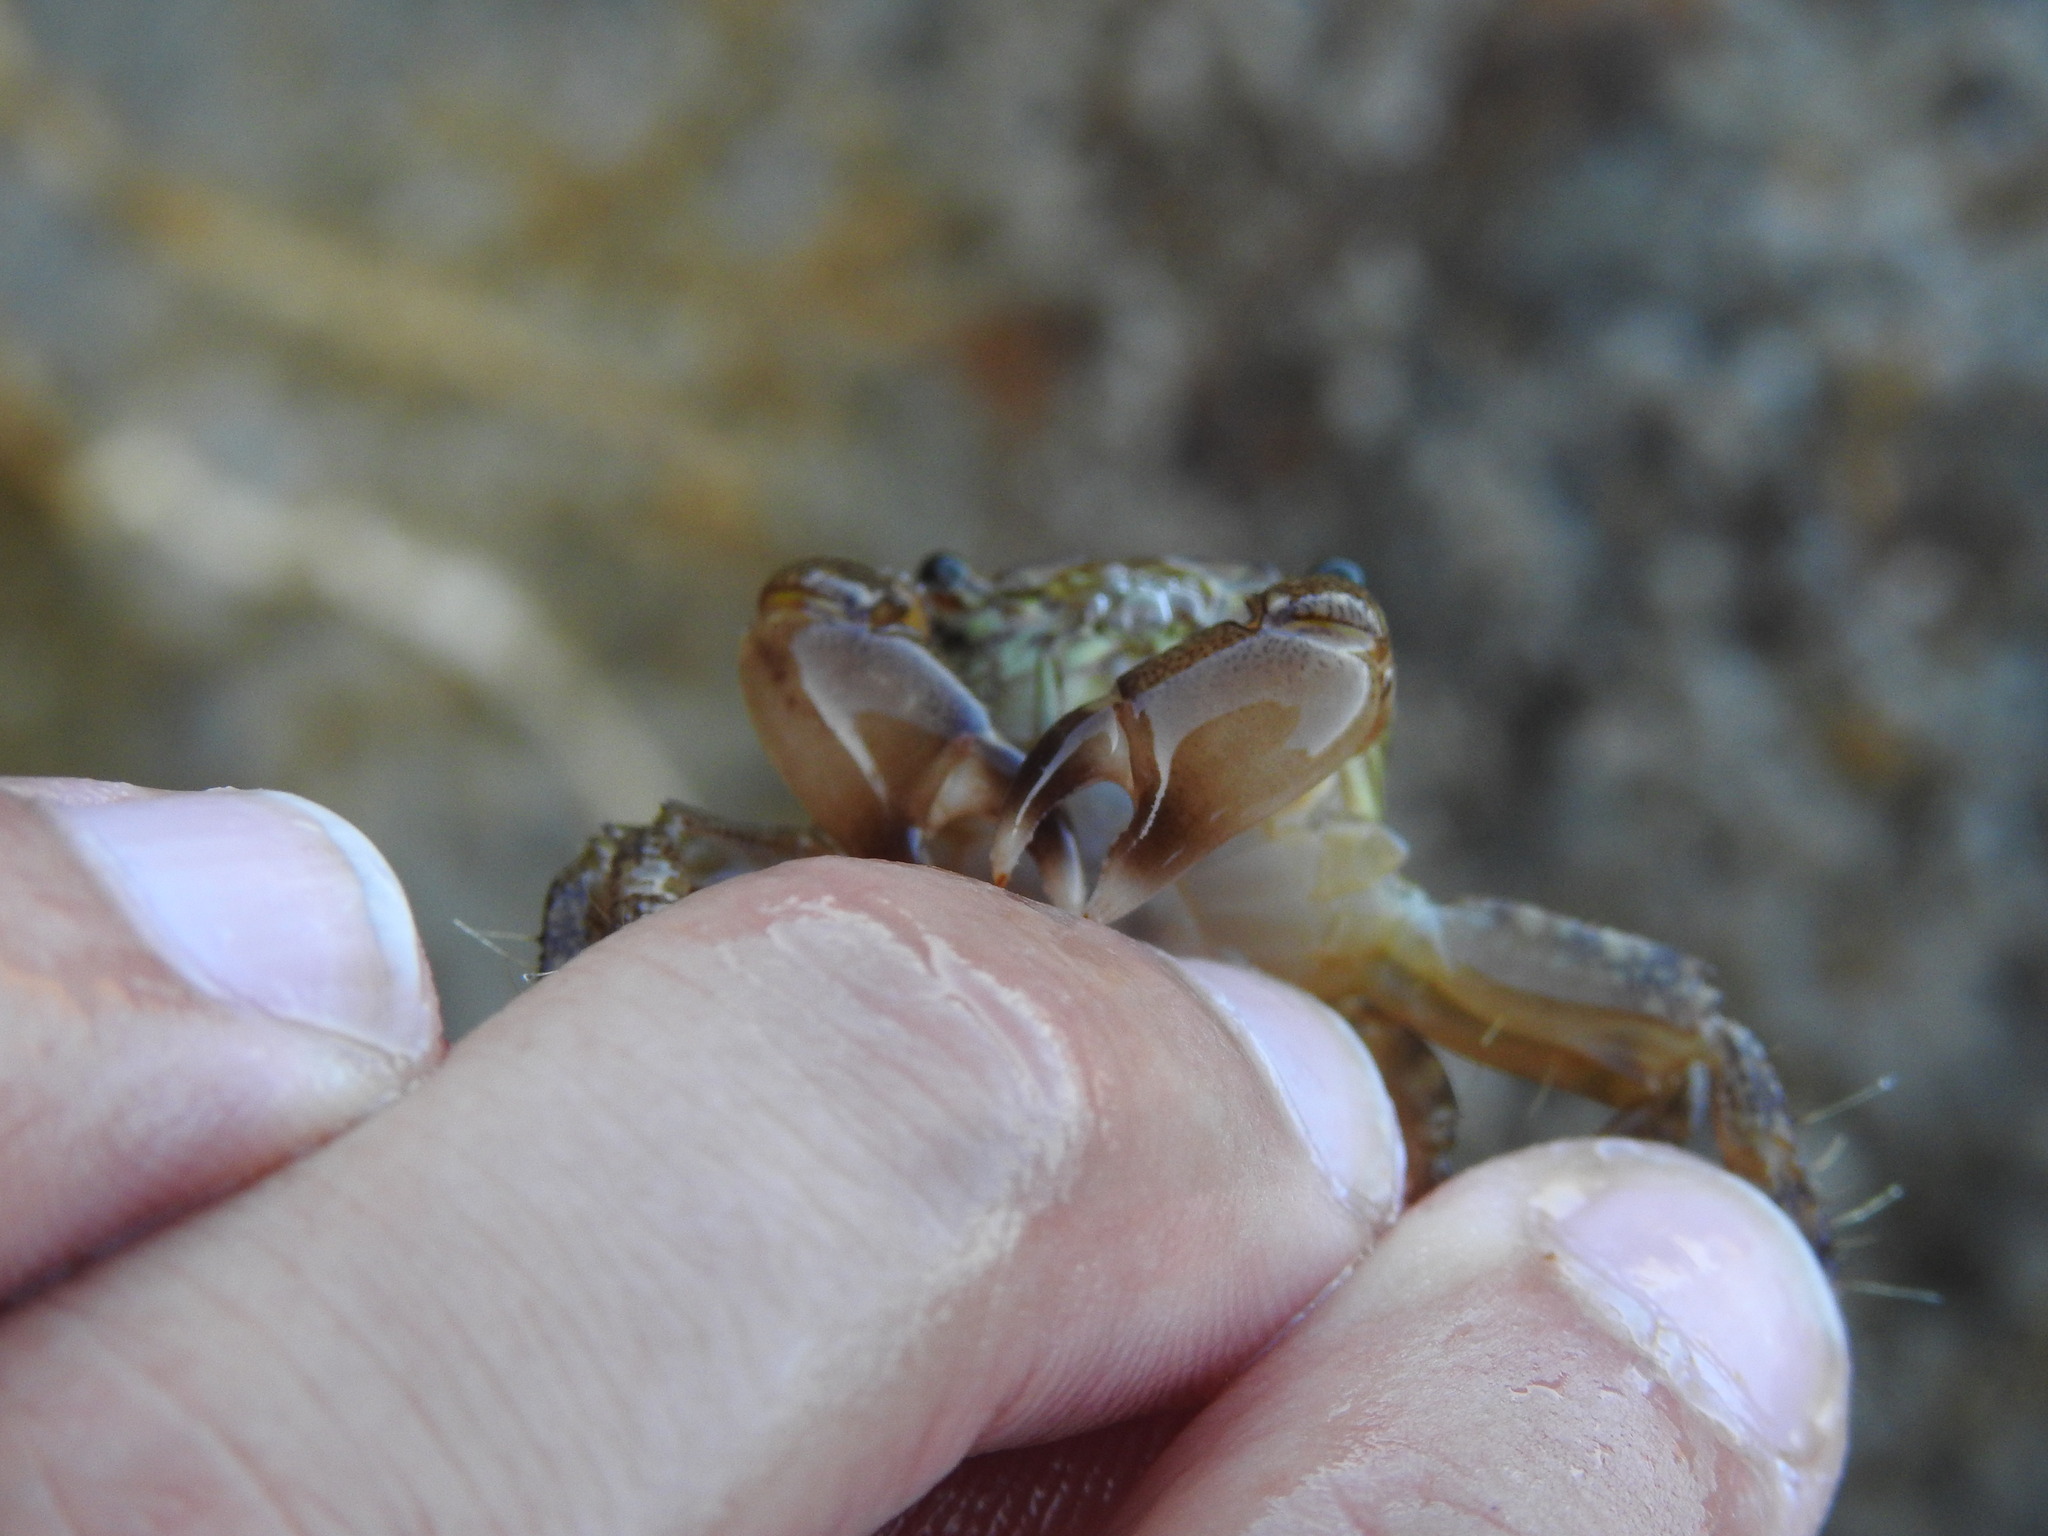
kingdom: Animalia
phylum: Arthropoda
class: Malacostraca
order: Decapoda
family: Grapsidae
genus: Pachygrapsus
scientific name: Pachygrapsus marmoratus
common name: Marbled rock crab
